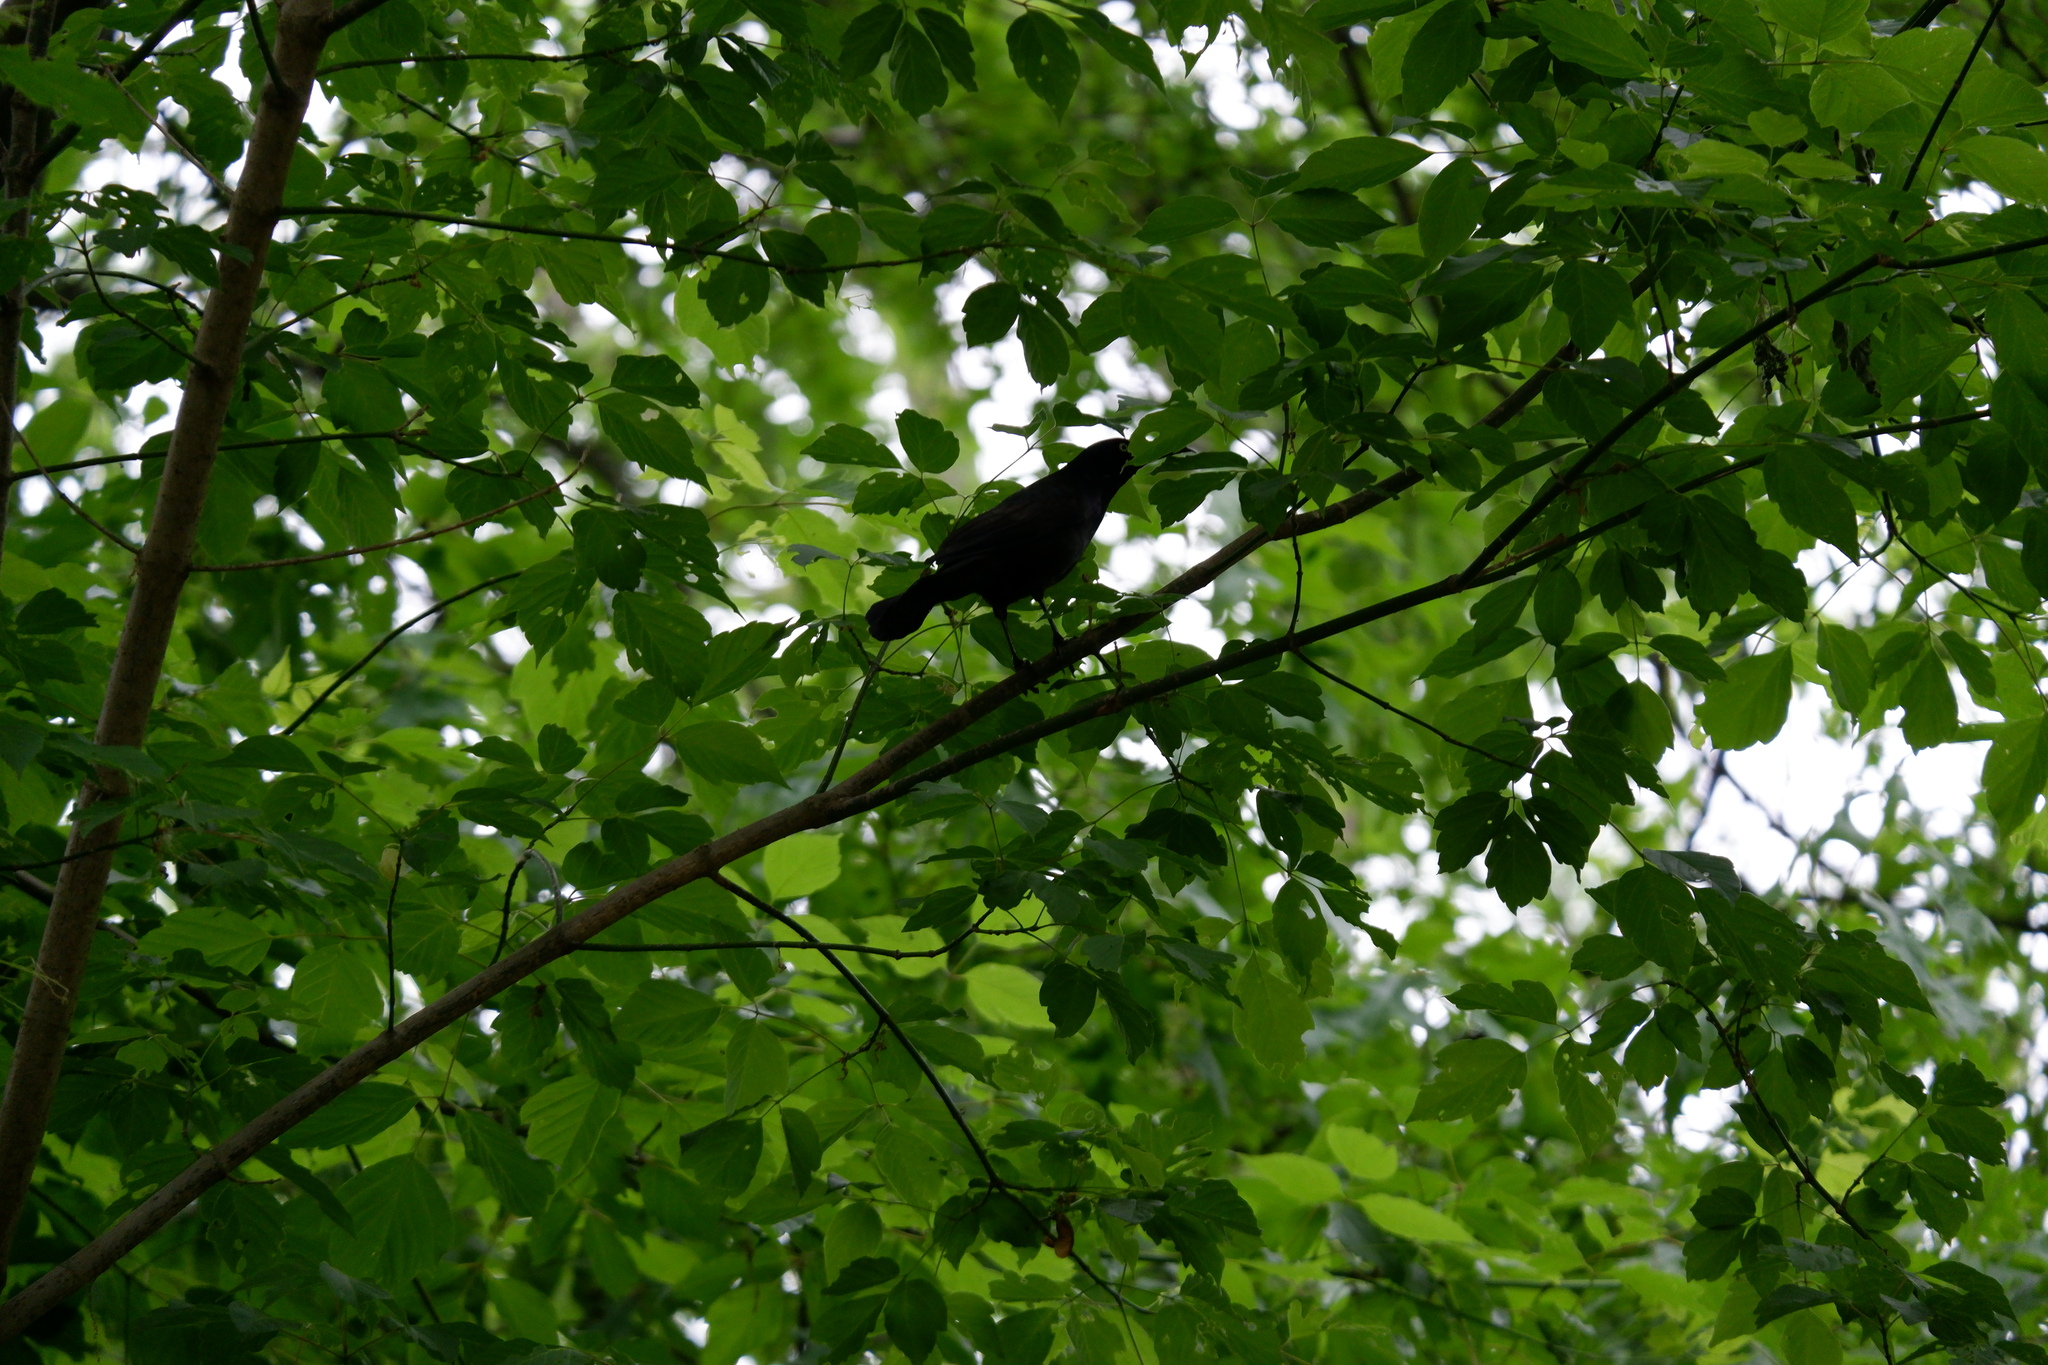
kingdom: Animalia
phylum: Chordata
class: Aves
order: Passeriformes
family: Icteridae
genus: Quiscalus
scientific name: Quiscalus quiscula
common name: Common grackle
